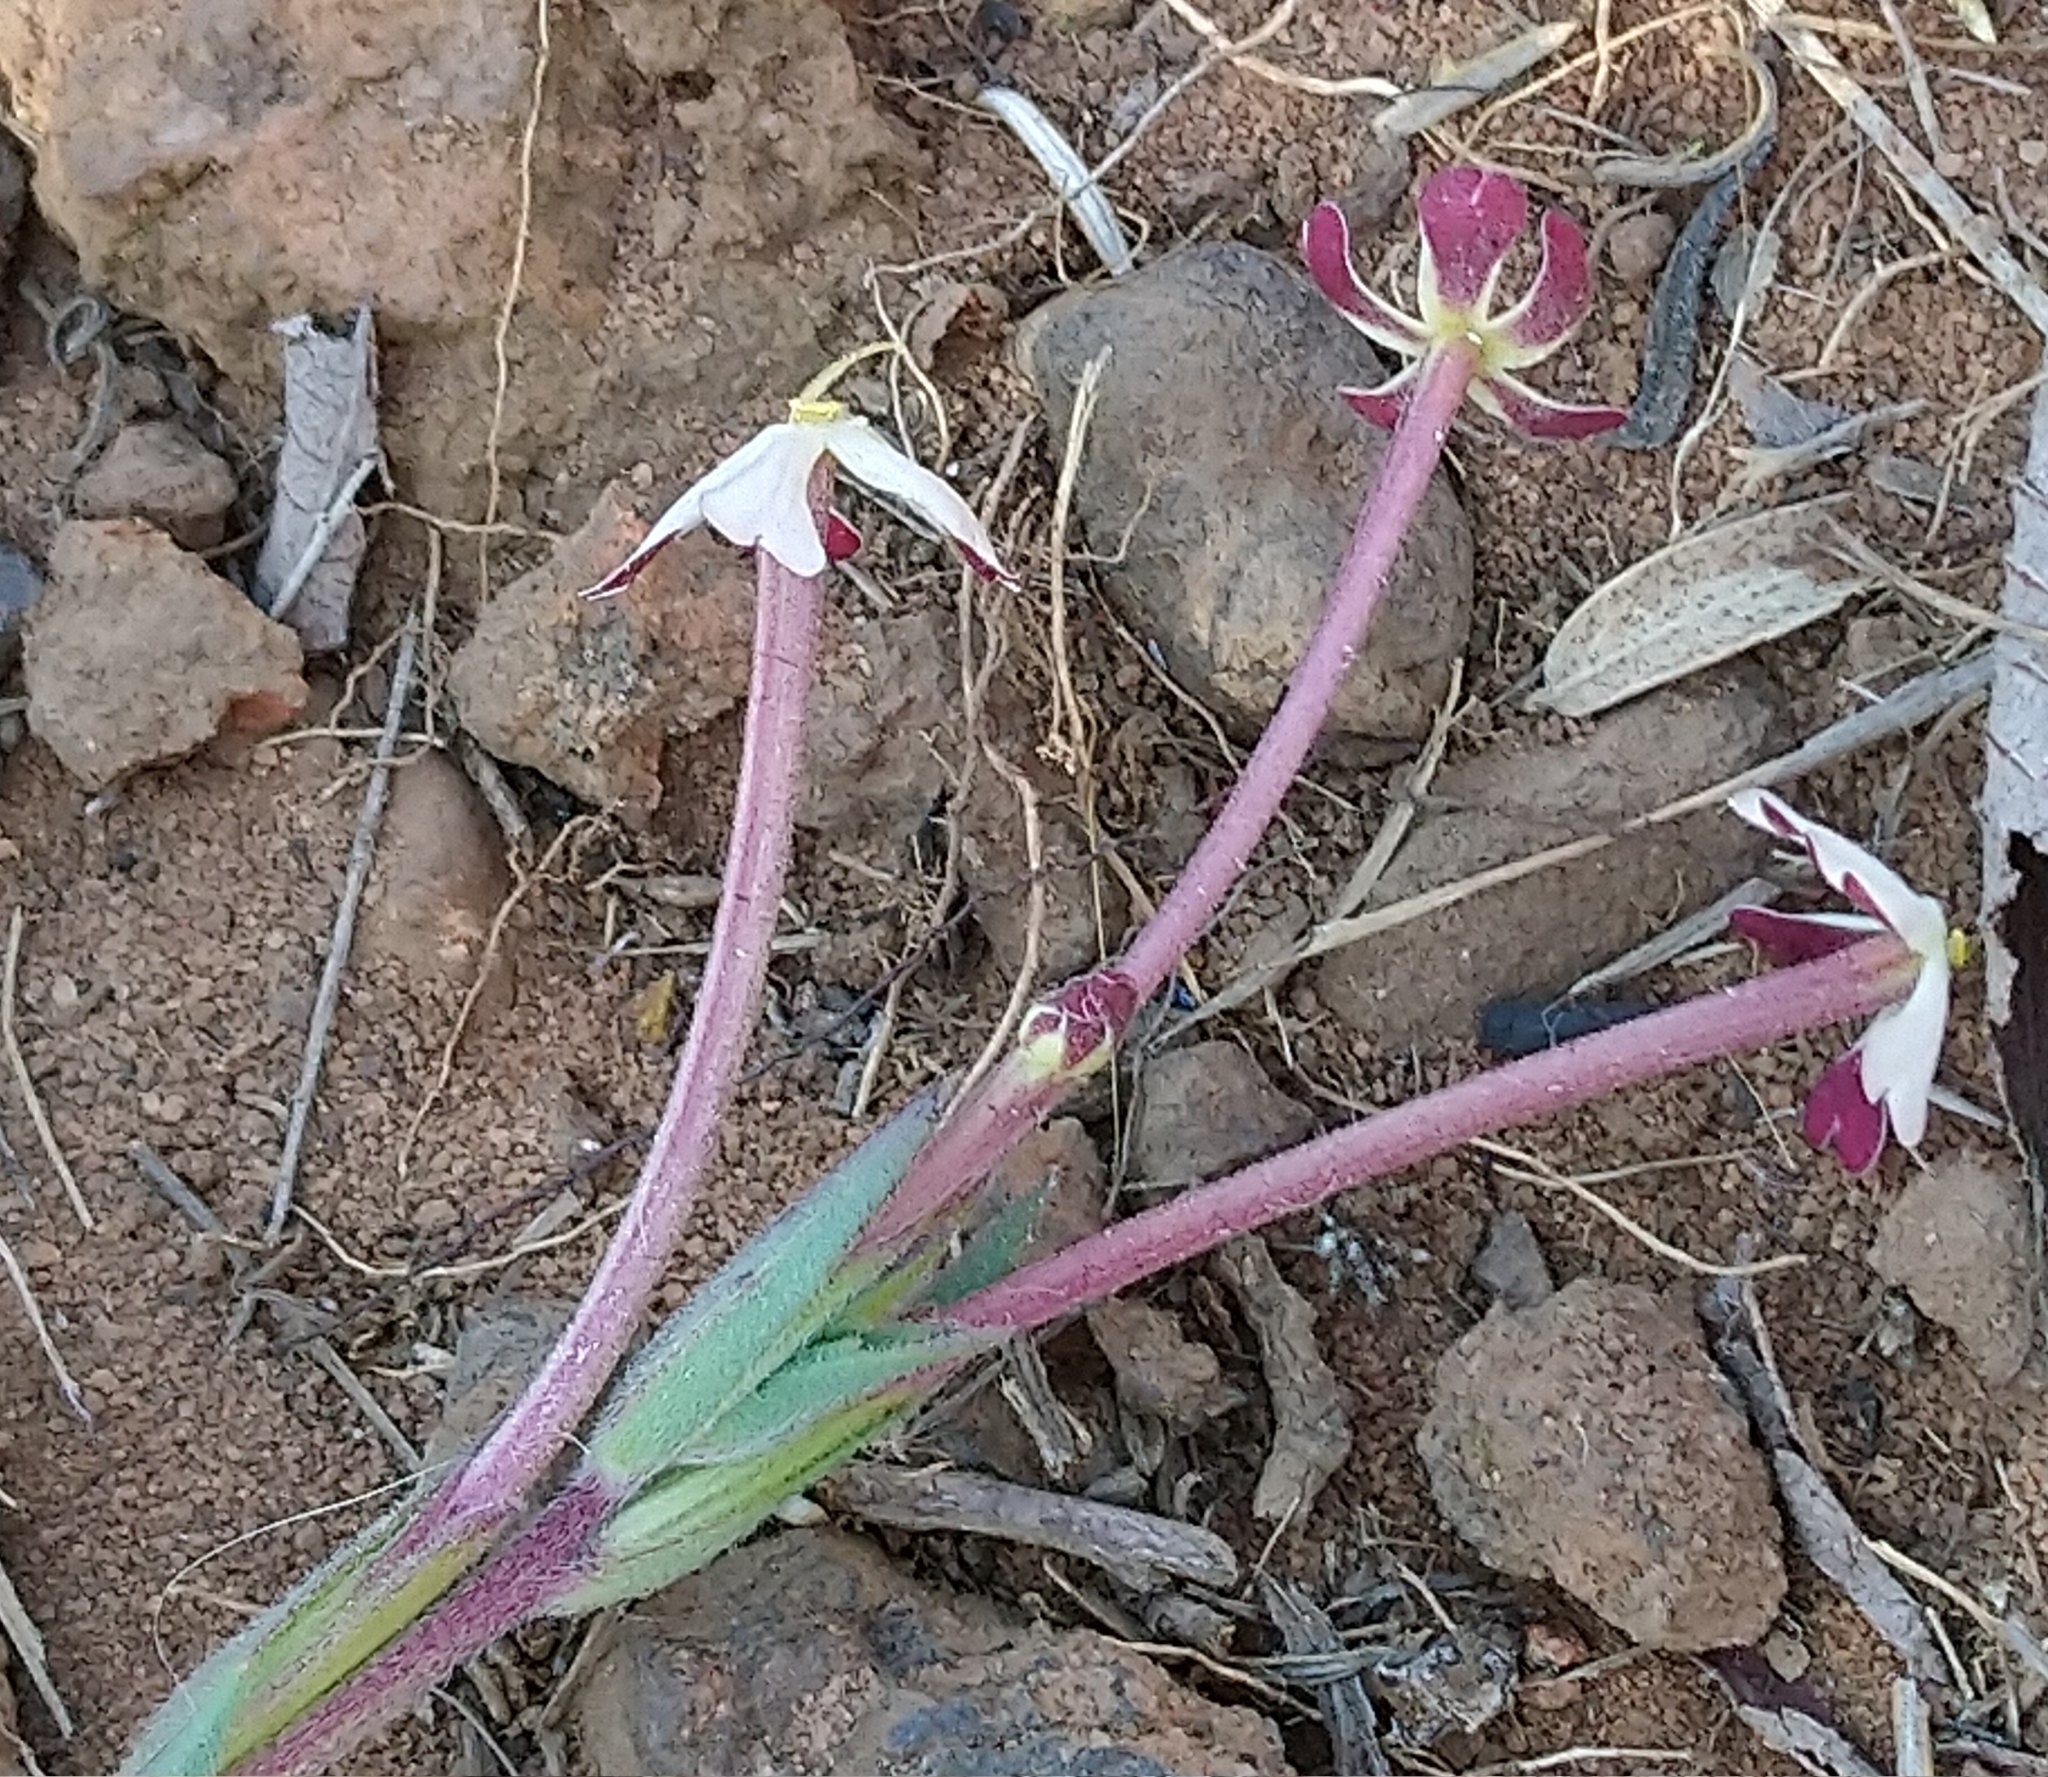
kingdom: Plantae
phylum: Tracheophyta
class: Magnoliopsida
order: Lamiales
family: Scrophulariaceae
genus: Zaluzianskya
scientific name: Zaluzianskya elongata
